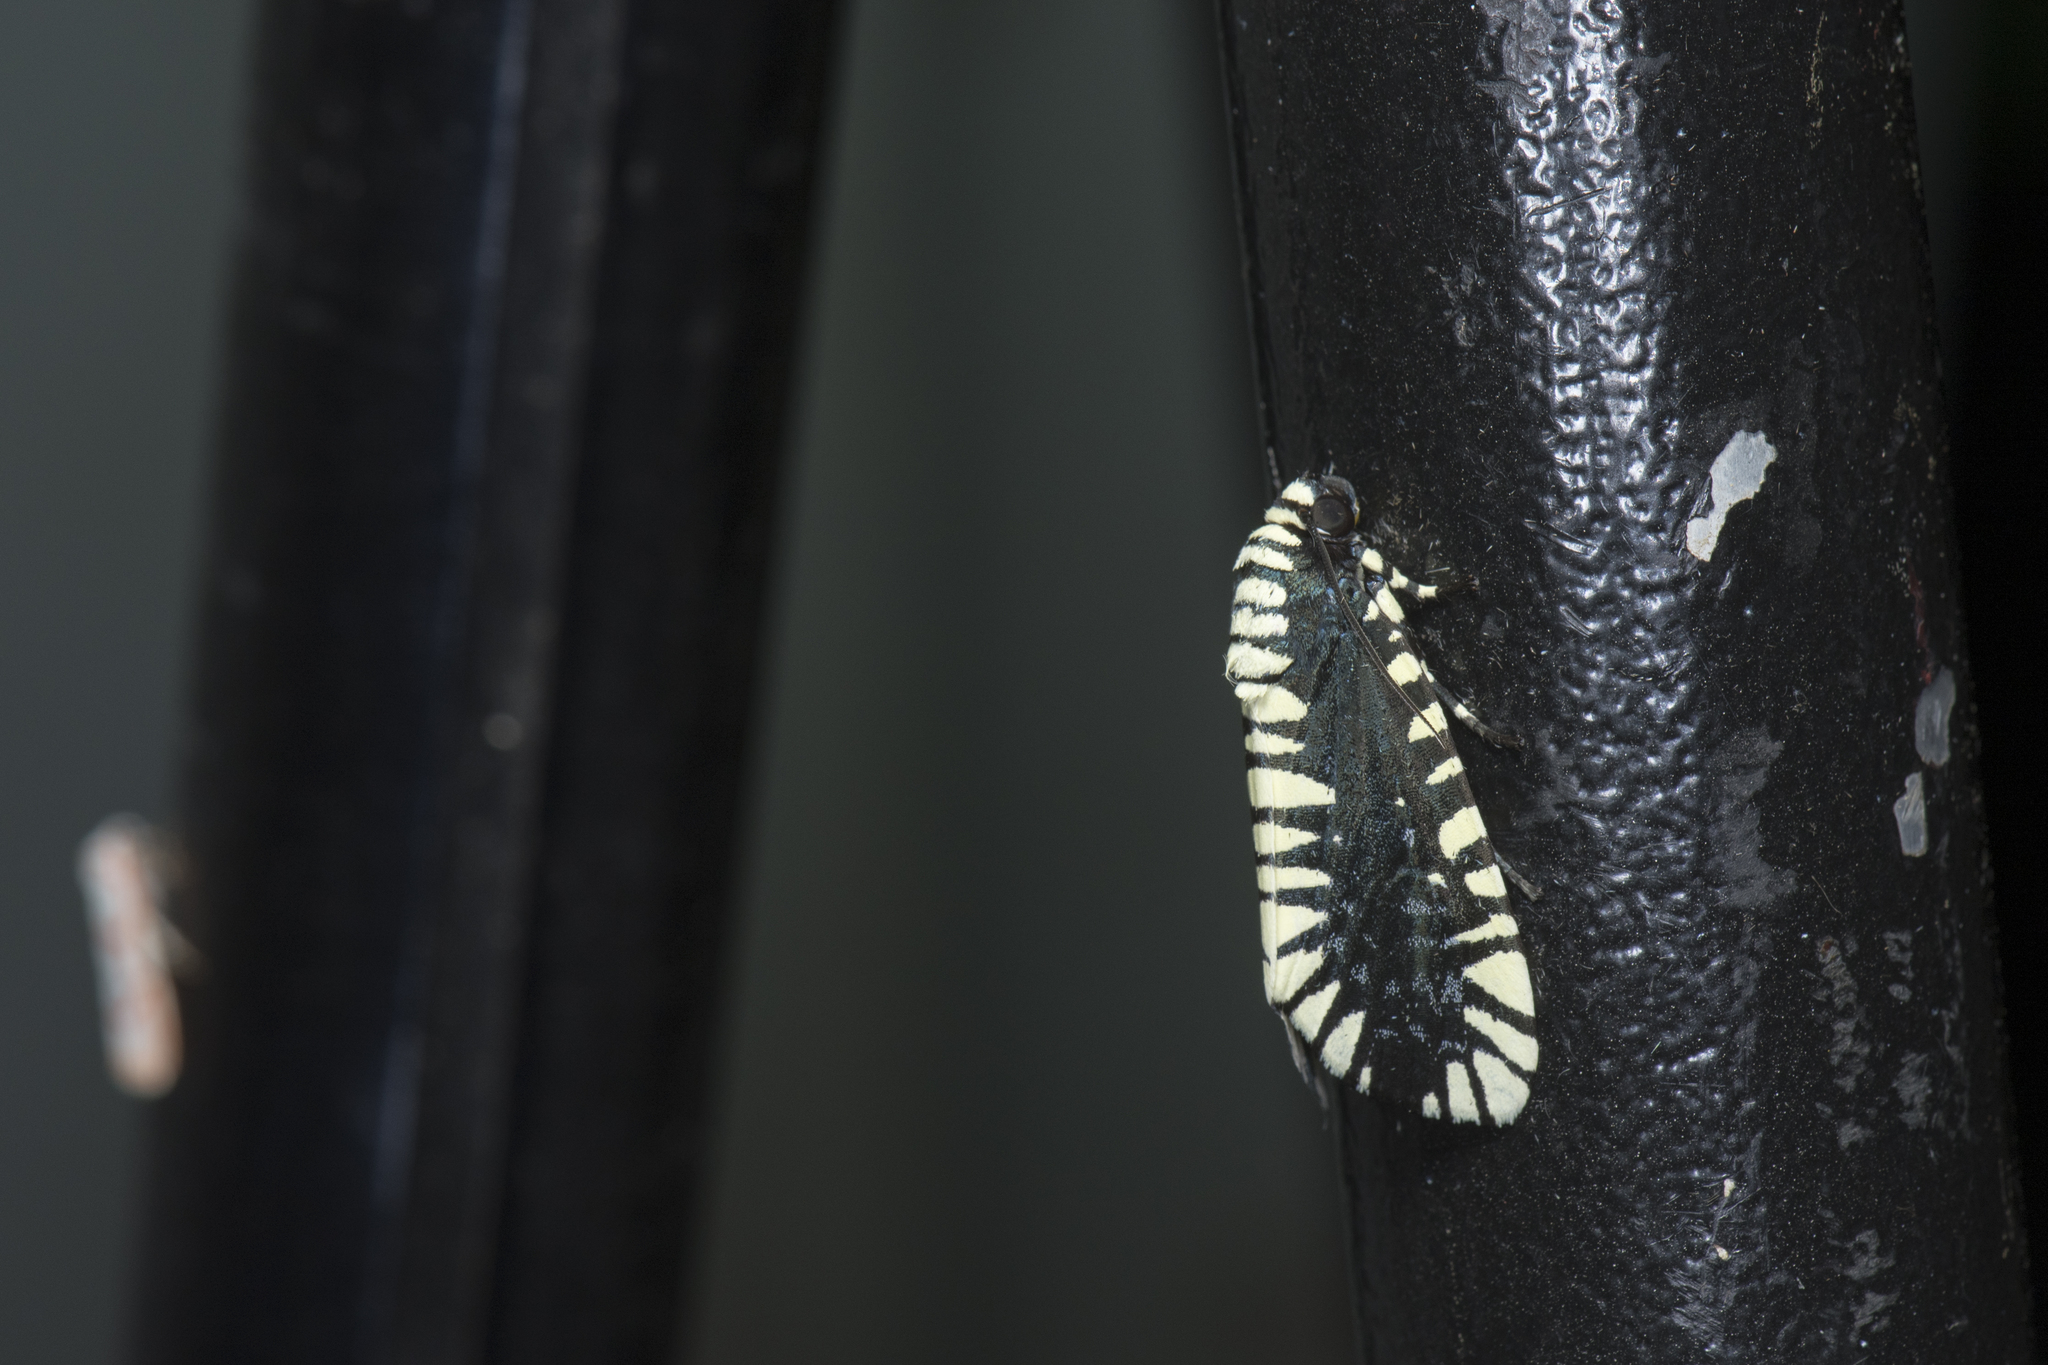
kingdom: Animalia
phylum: Arthropoda
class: Insecta
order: Lepidoptera
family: Noctuidae
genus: Apsarasa
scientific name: Apsarasa radians
